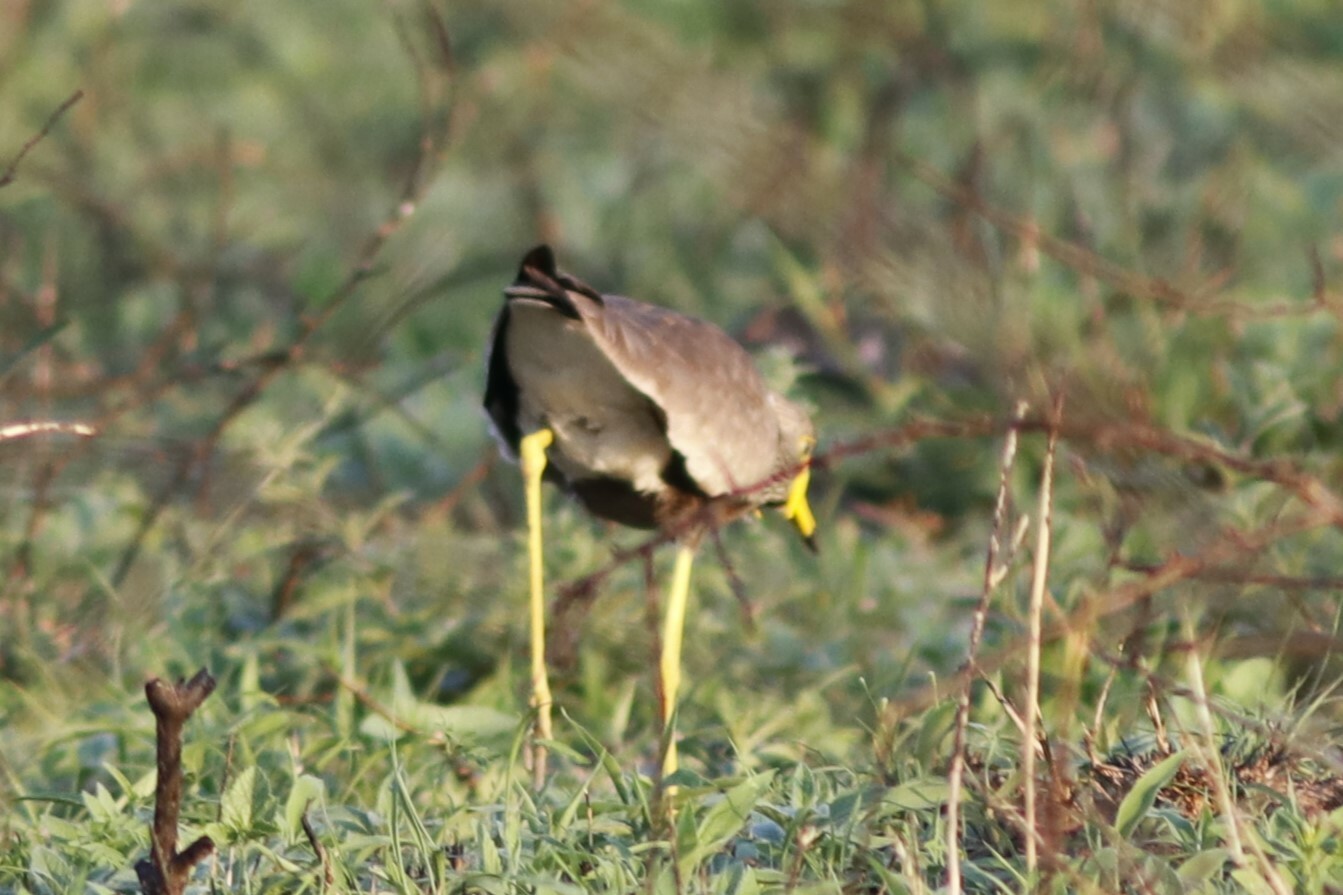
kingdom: Animalia
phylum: Chordata
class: Aves
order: Charadriiformes
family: Charadriidae
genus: Vanellus
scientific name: Vanellus senegallus
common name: African wattled lapwing
